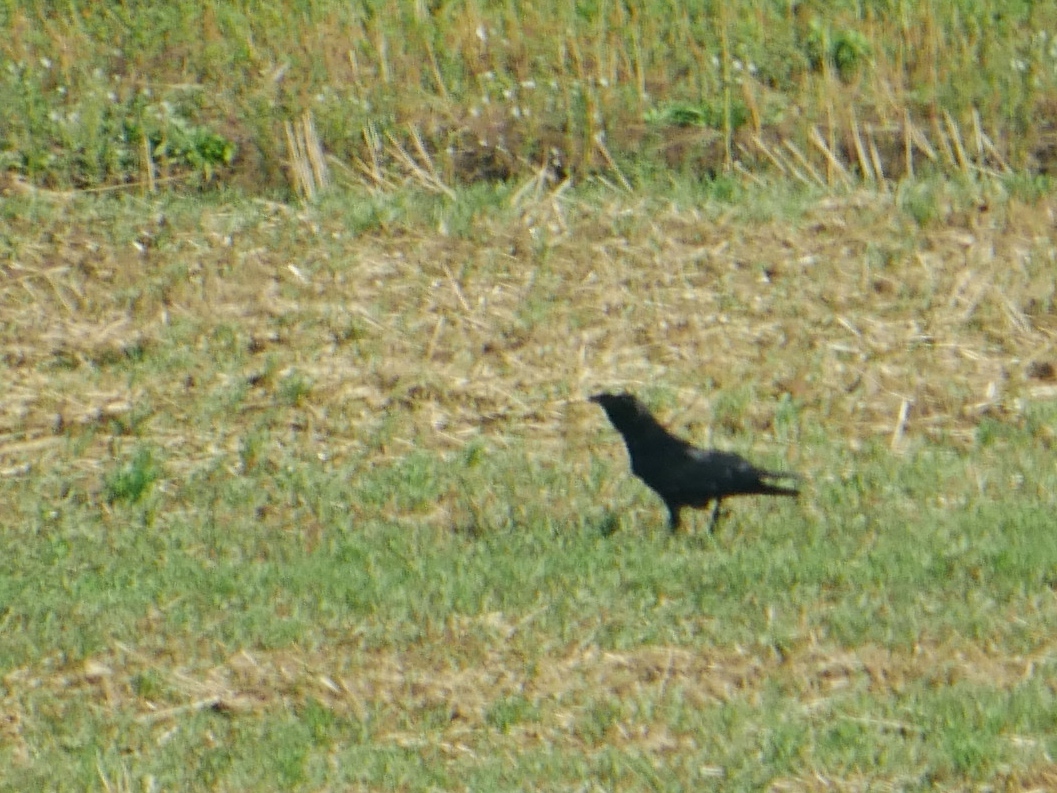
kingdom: Animalia
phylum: Chordata
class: Aves
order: Passeriformes
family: Corvidae
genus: Corvus
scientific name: Corvus corone
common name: Carrion crow
